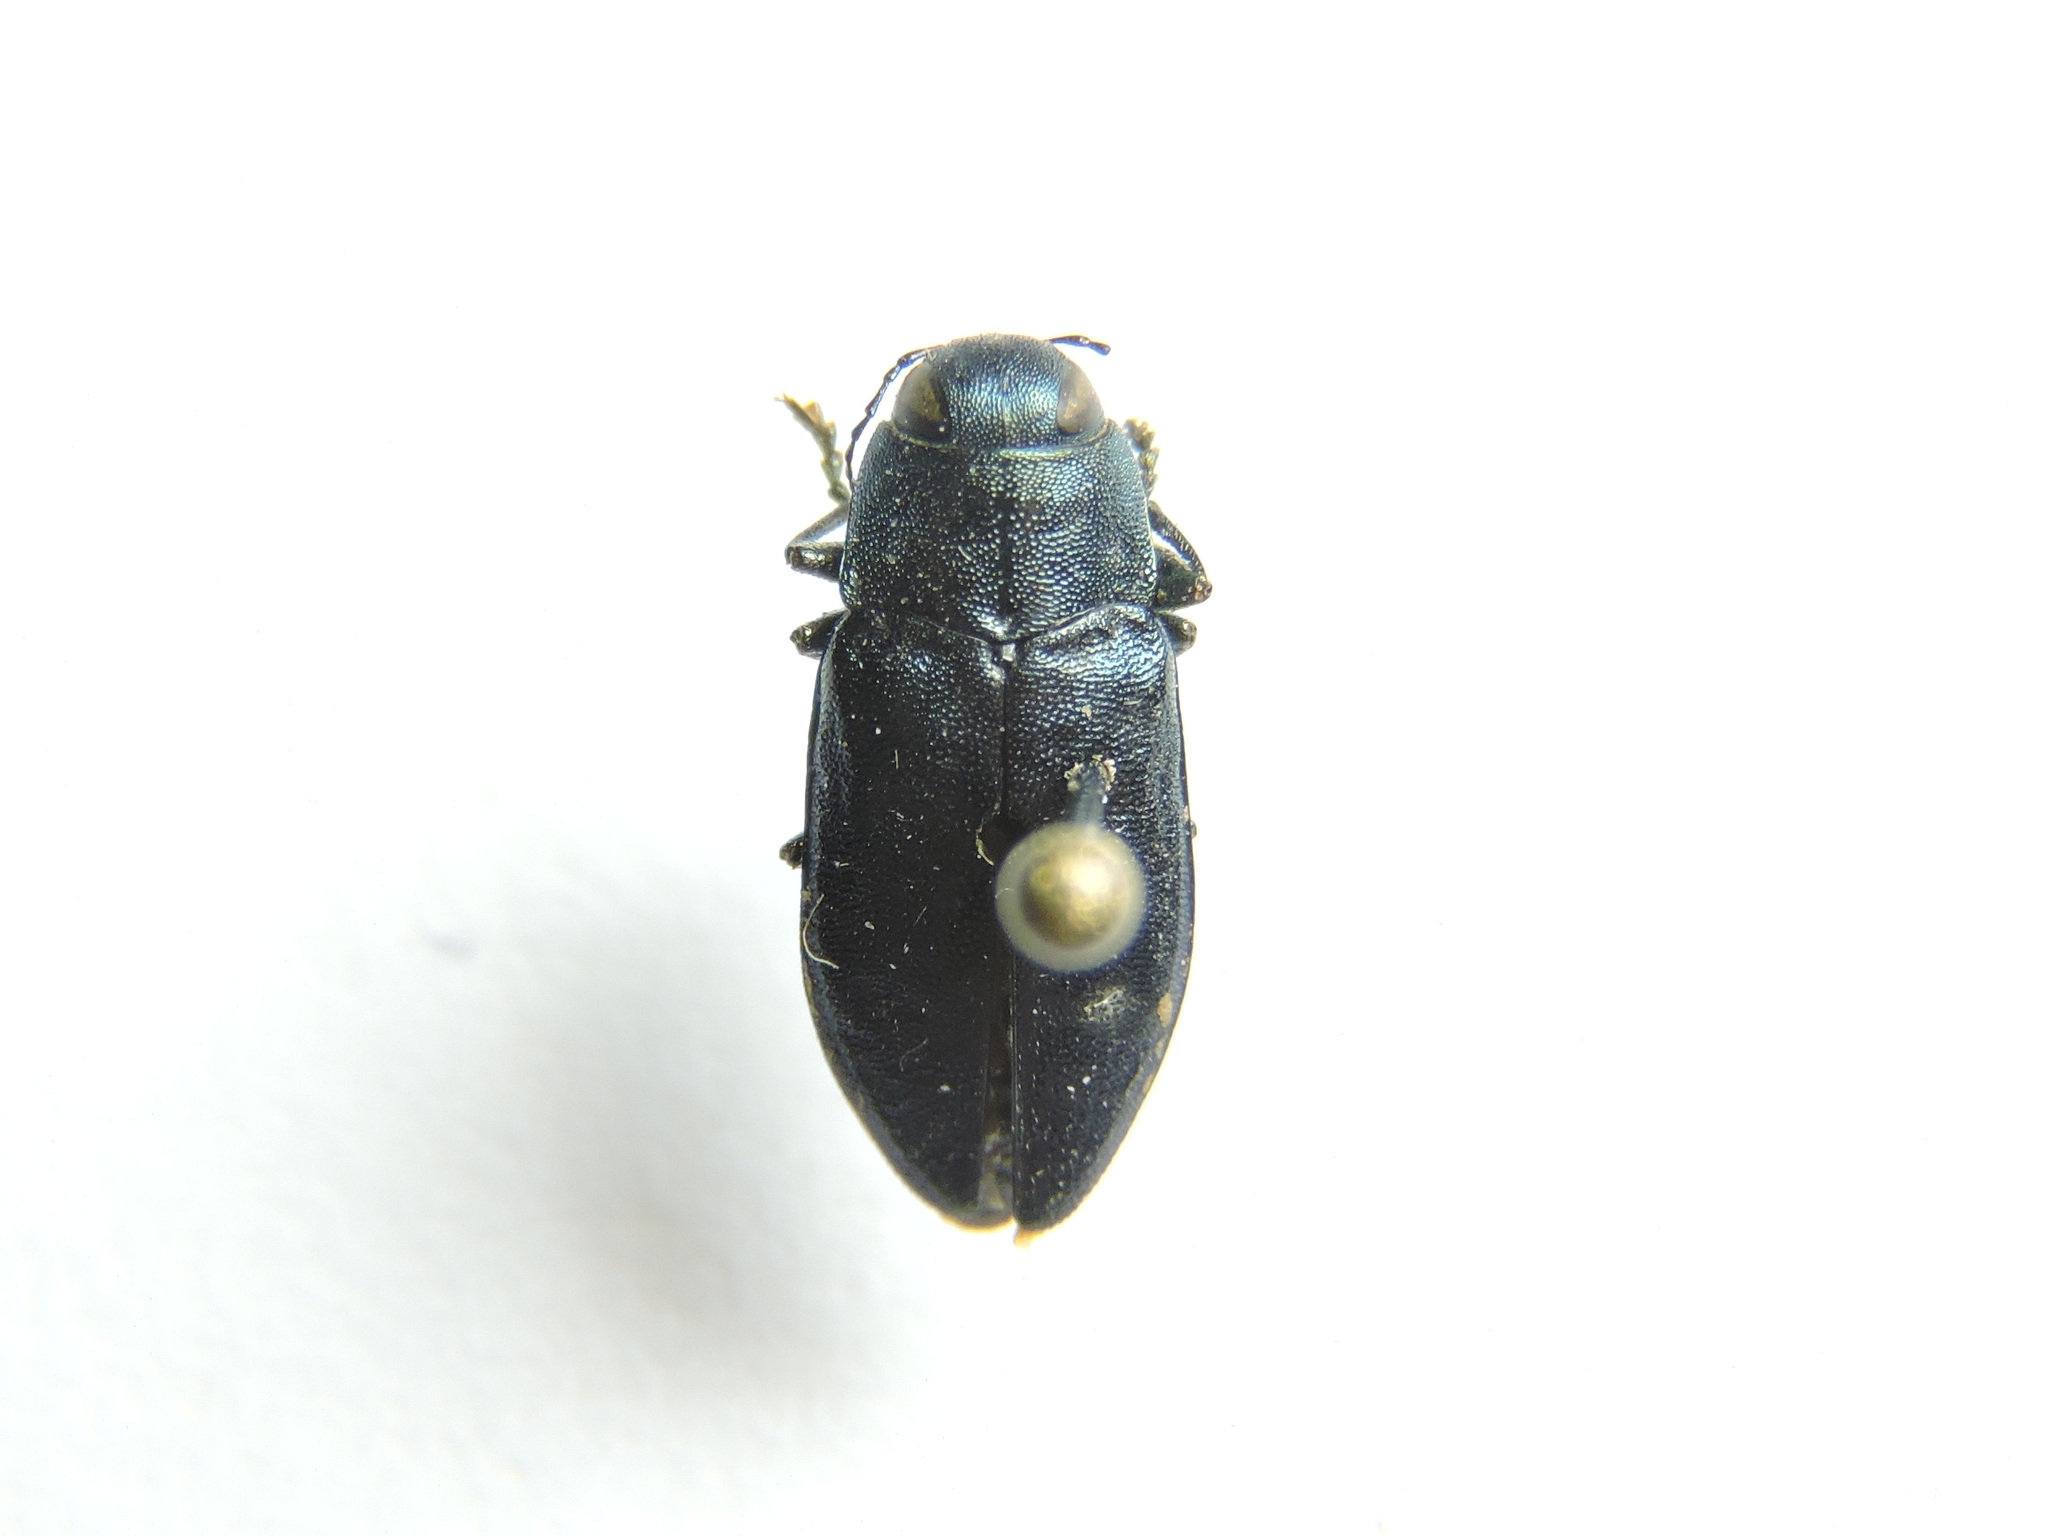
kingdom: Animalia
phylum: Arthropoda
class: Insecta
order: Coleoptera
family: Buprestidae
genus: Phaenops
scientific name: Phaenops cyanea
